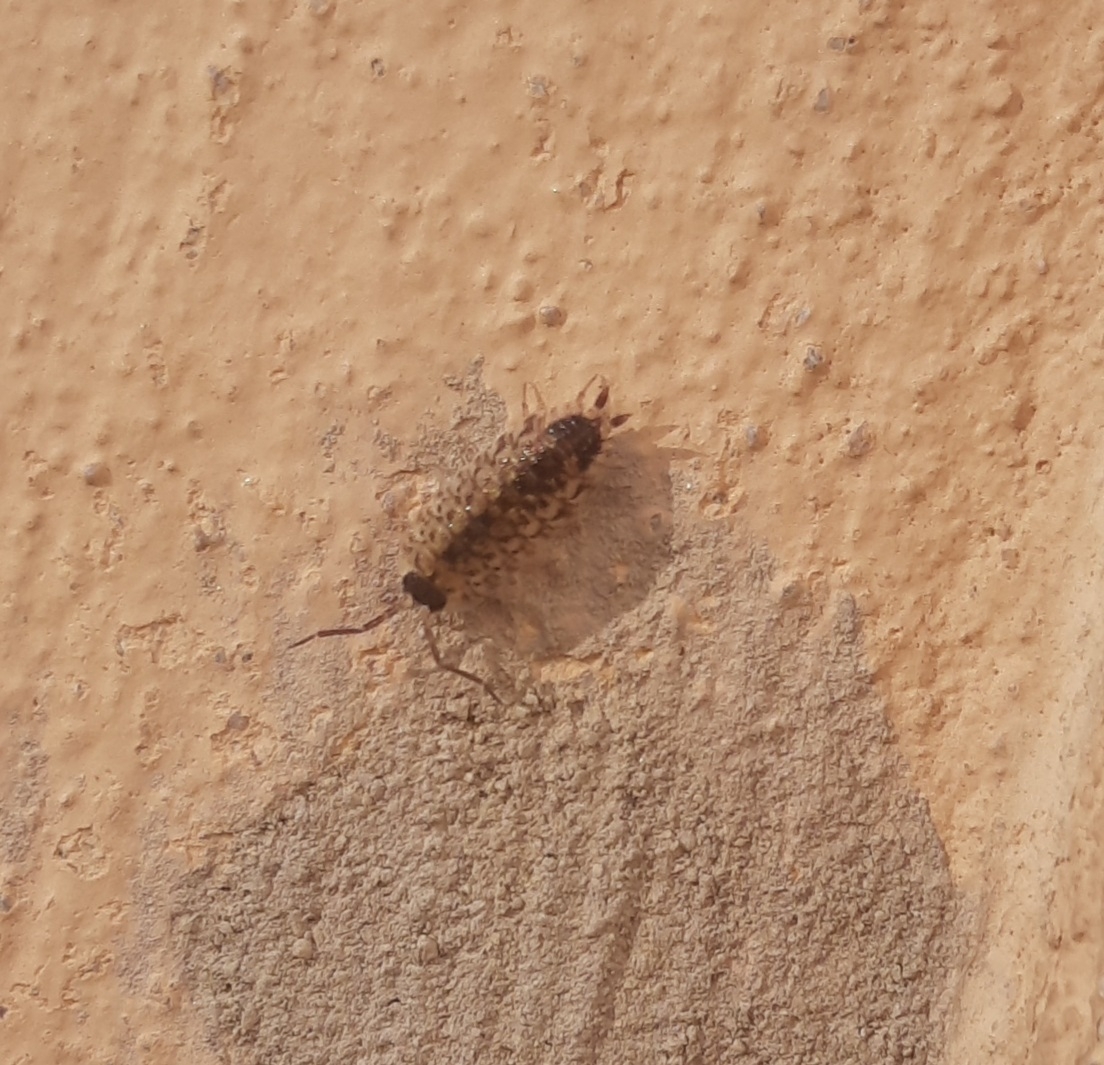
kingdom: Animalia
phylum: Arthropoda
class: Malacostraca
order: Isopoda
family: Porcellionidae
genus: Porcellio
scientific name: Porcellio spinicornis
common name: Painted woodlouse
